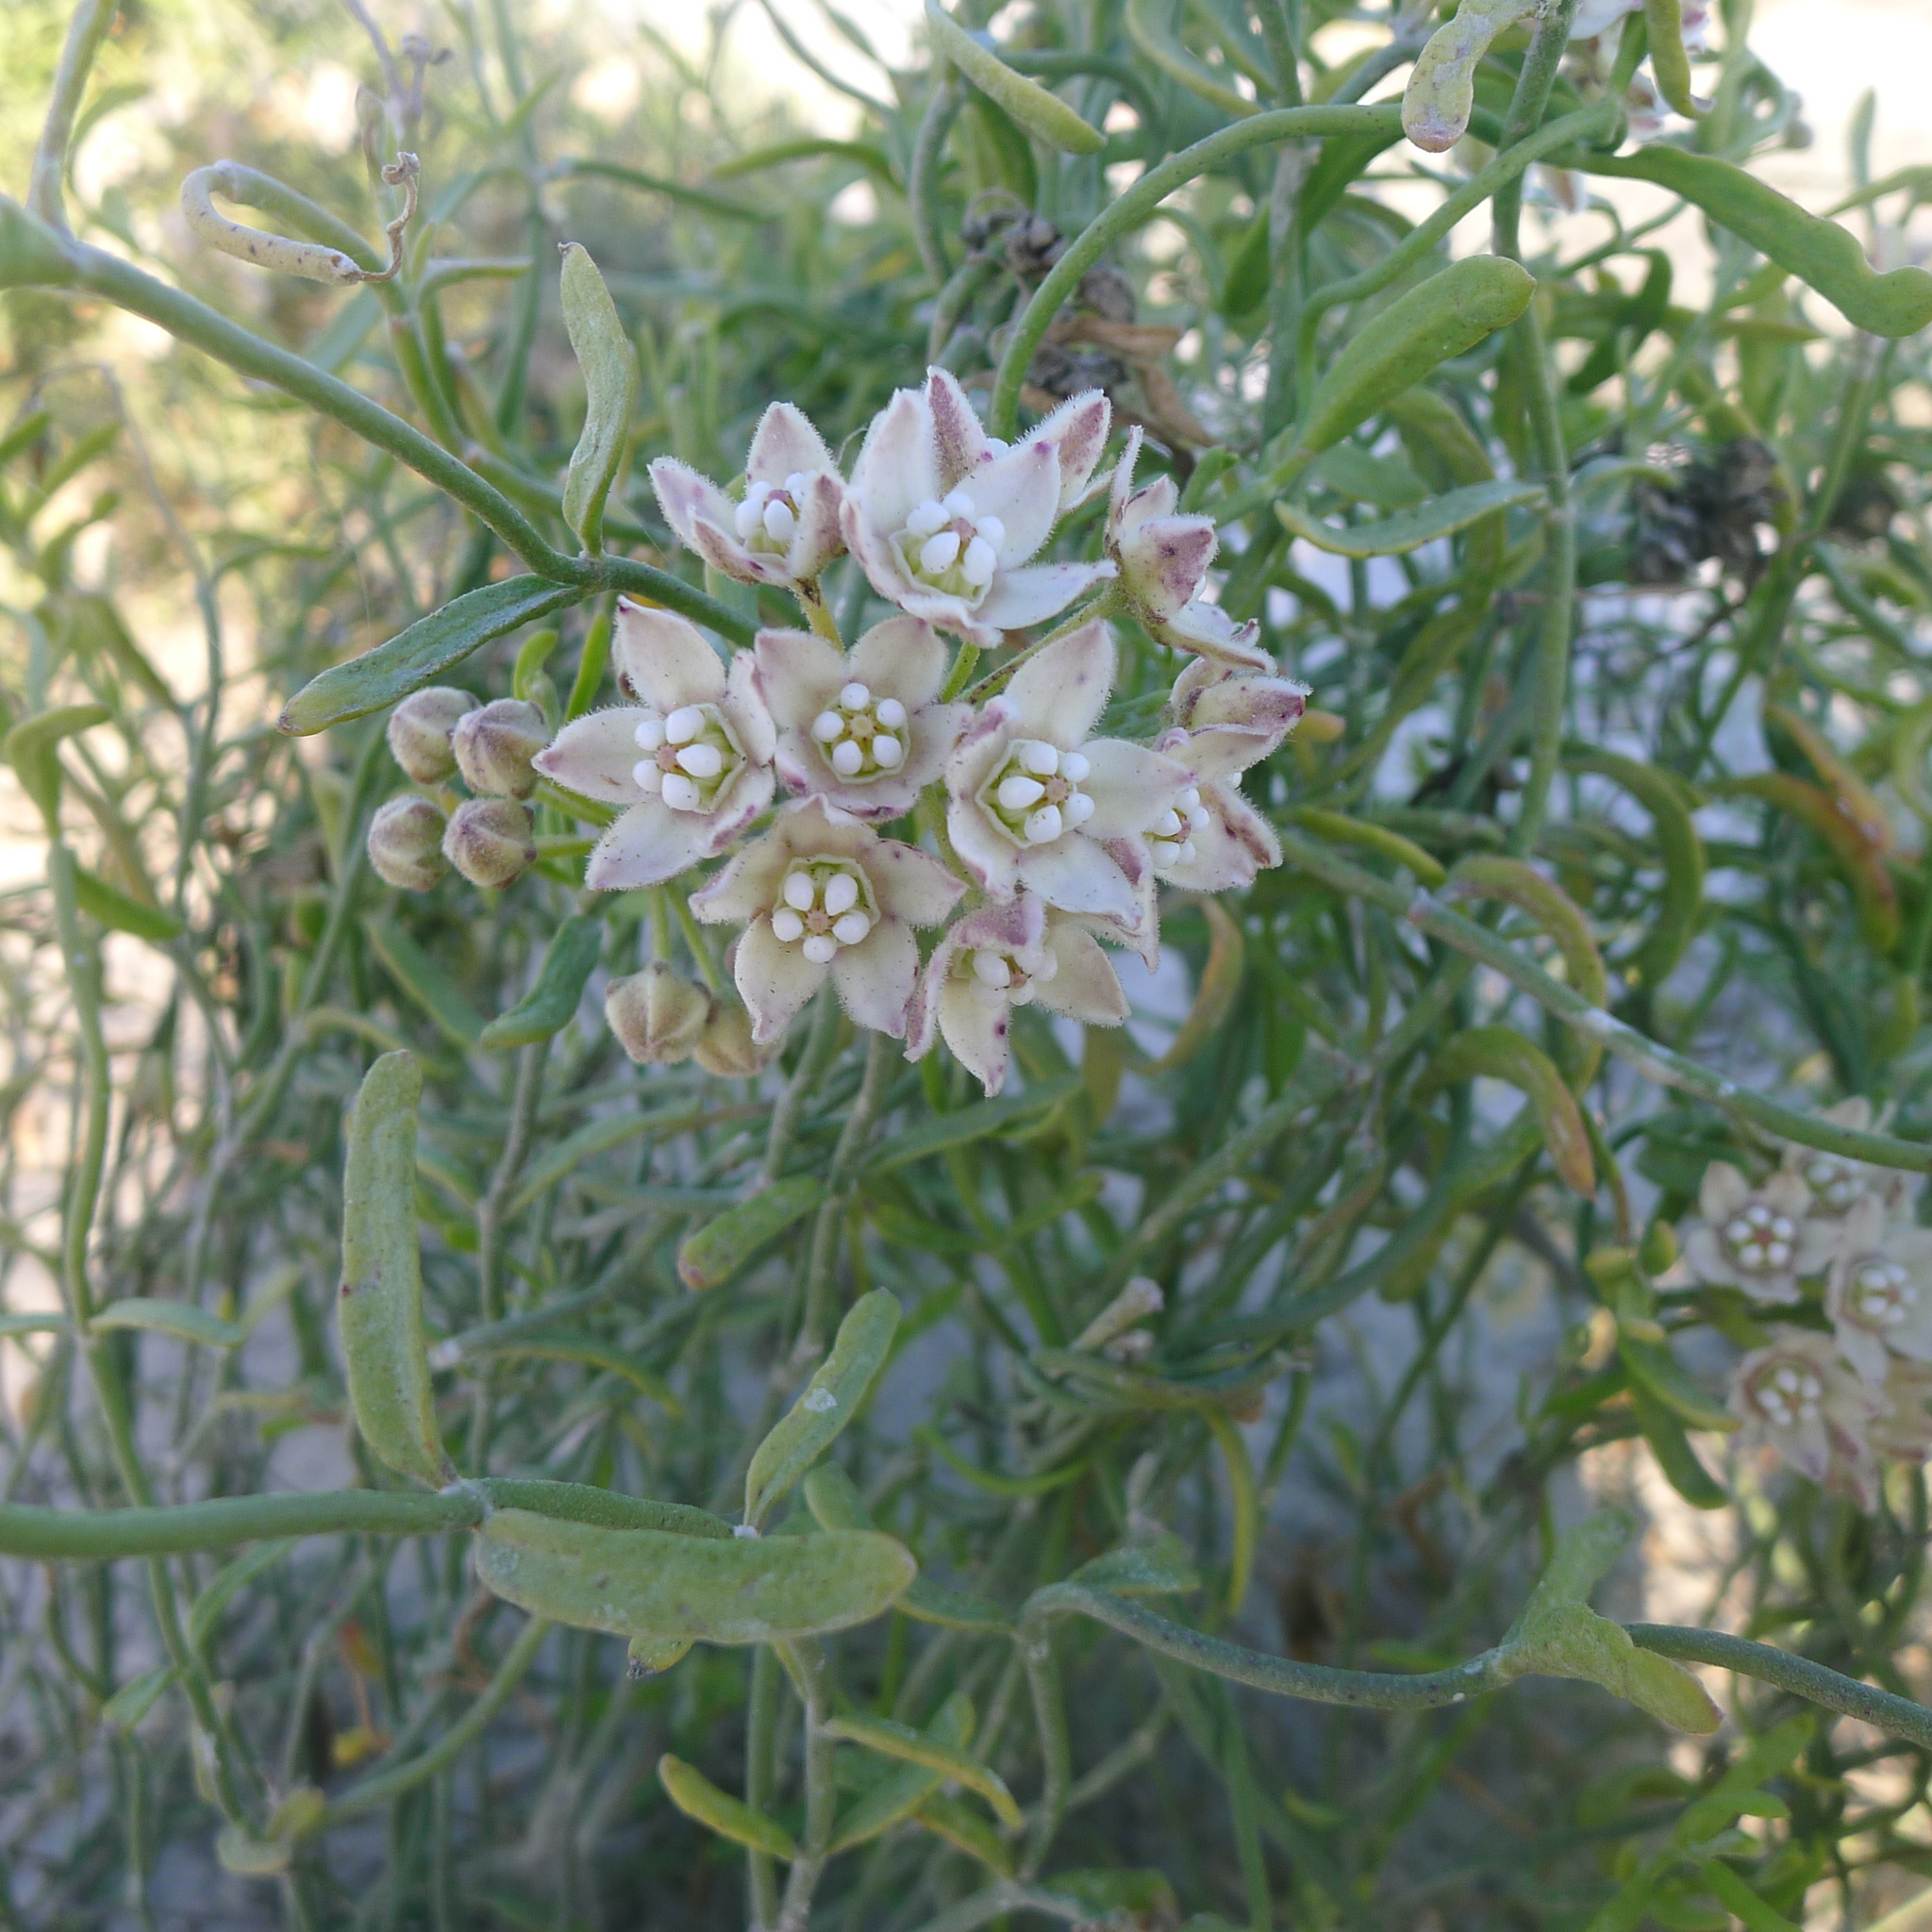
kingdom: Plantae
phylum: Tracheophyta
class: Magnoliopsida
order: Gentianales
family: Apocynaceae
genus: Funastrum
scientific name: Funastrum arenarium
